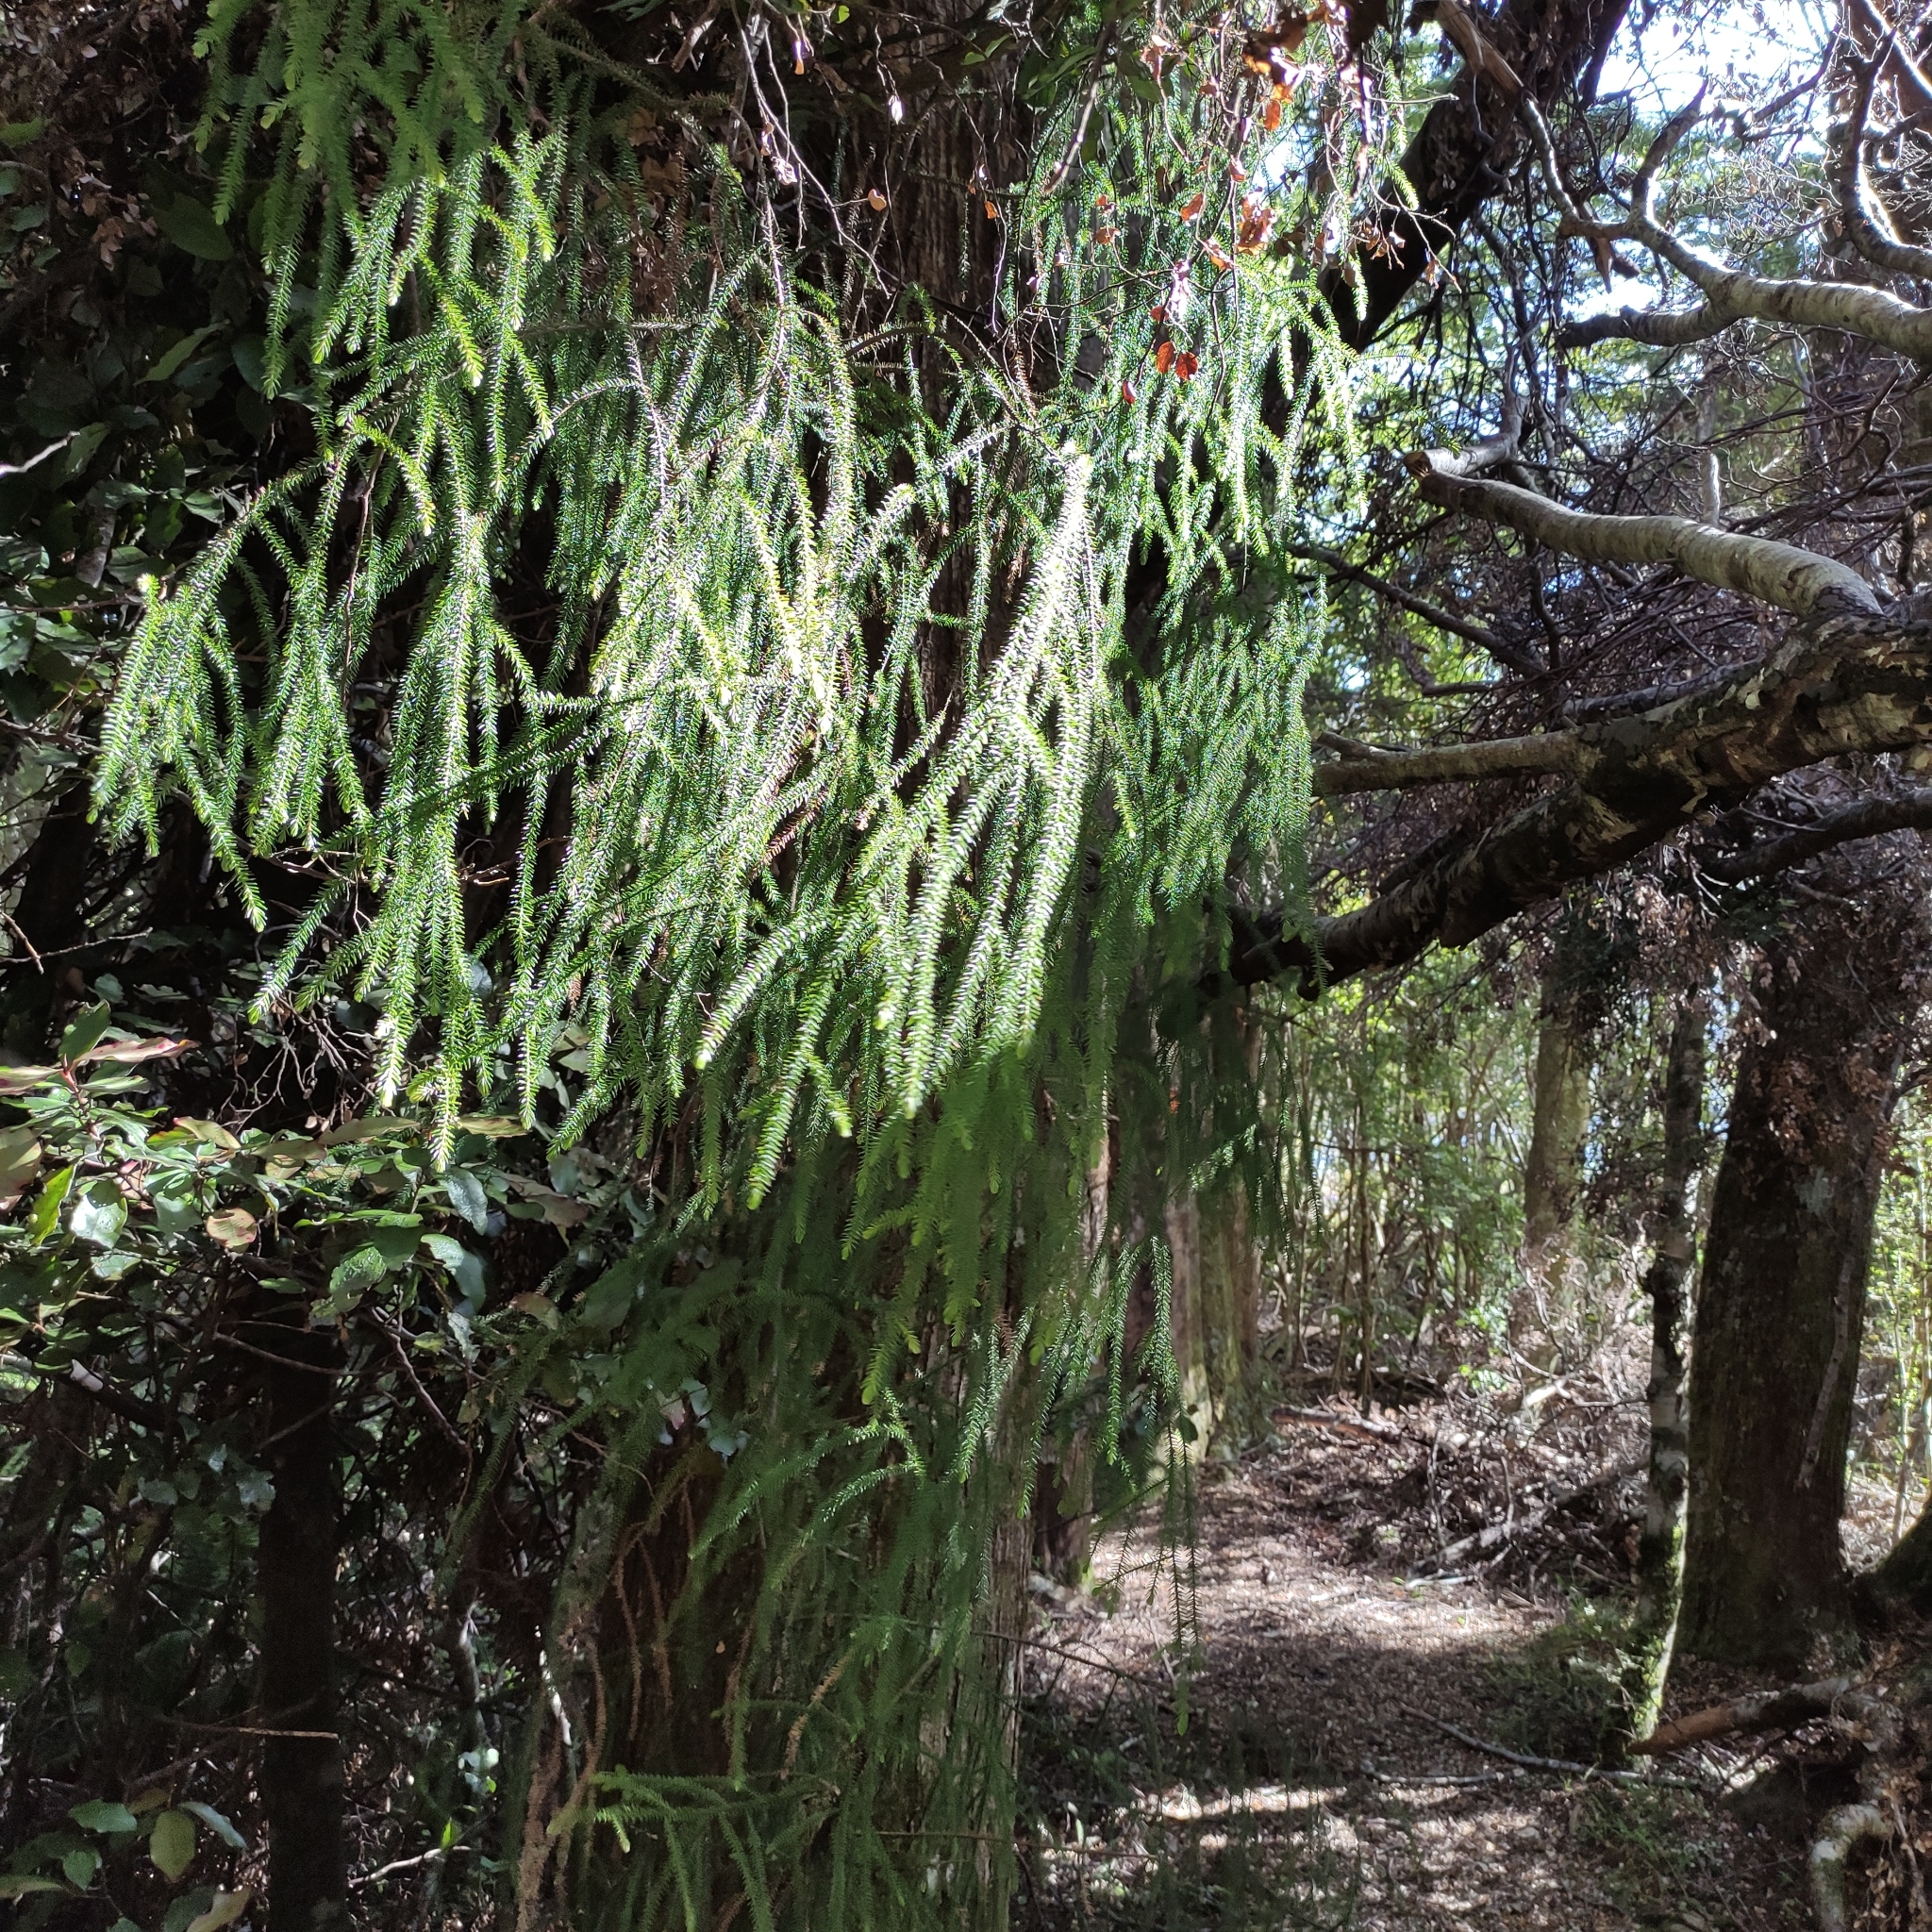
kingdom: Plantae
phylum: Tracheophyta
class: Pinopsida
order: Pinales
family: Podocarpaceae
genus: Dacrydium
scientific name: Dacrydium cupressinum
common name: Red pine
